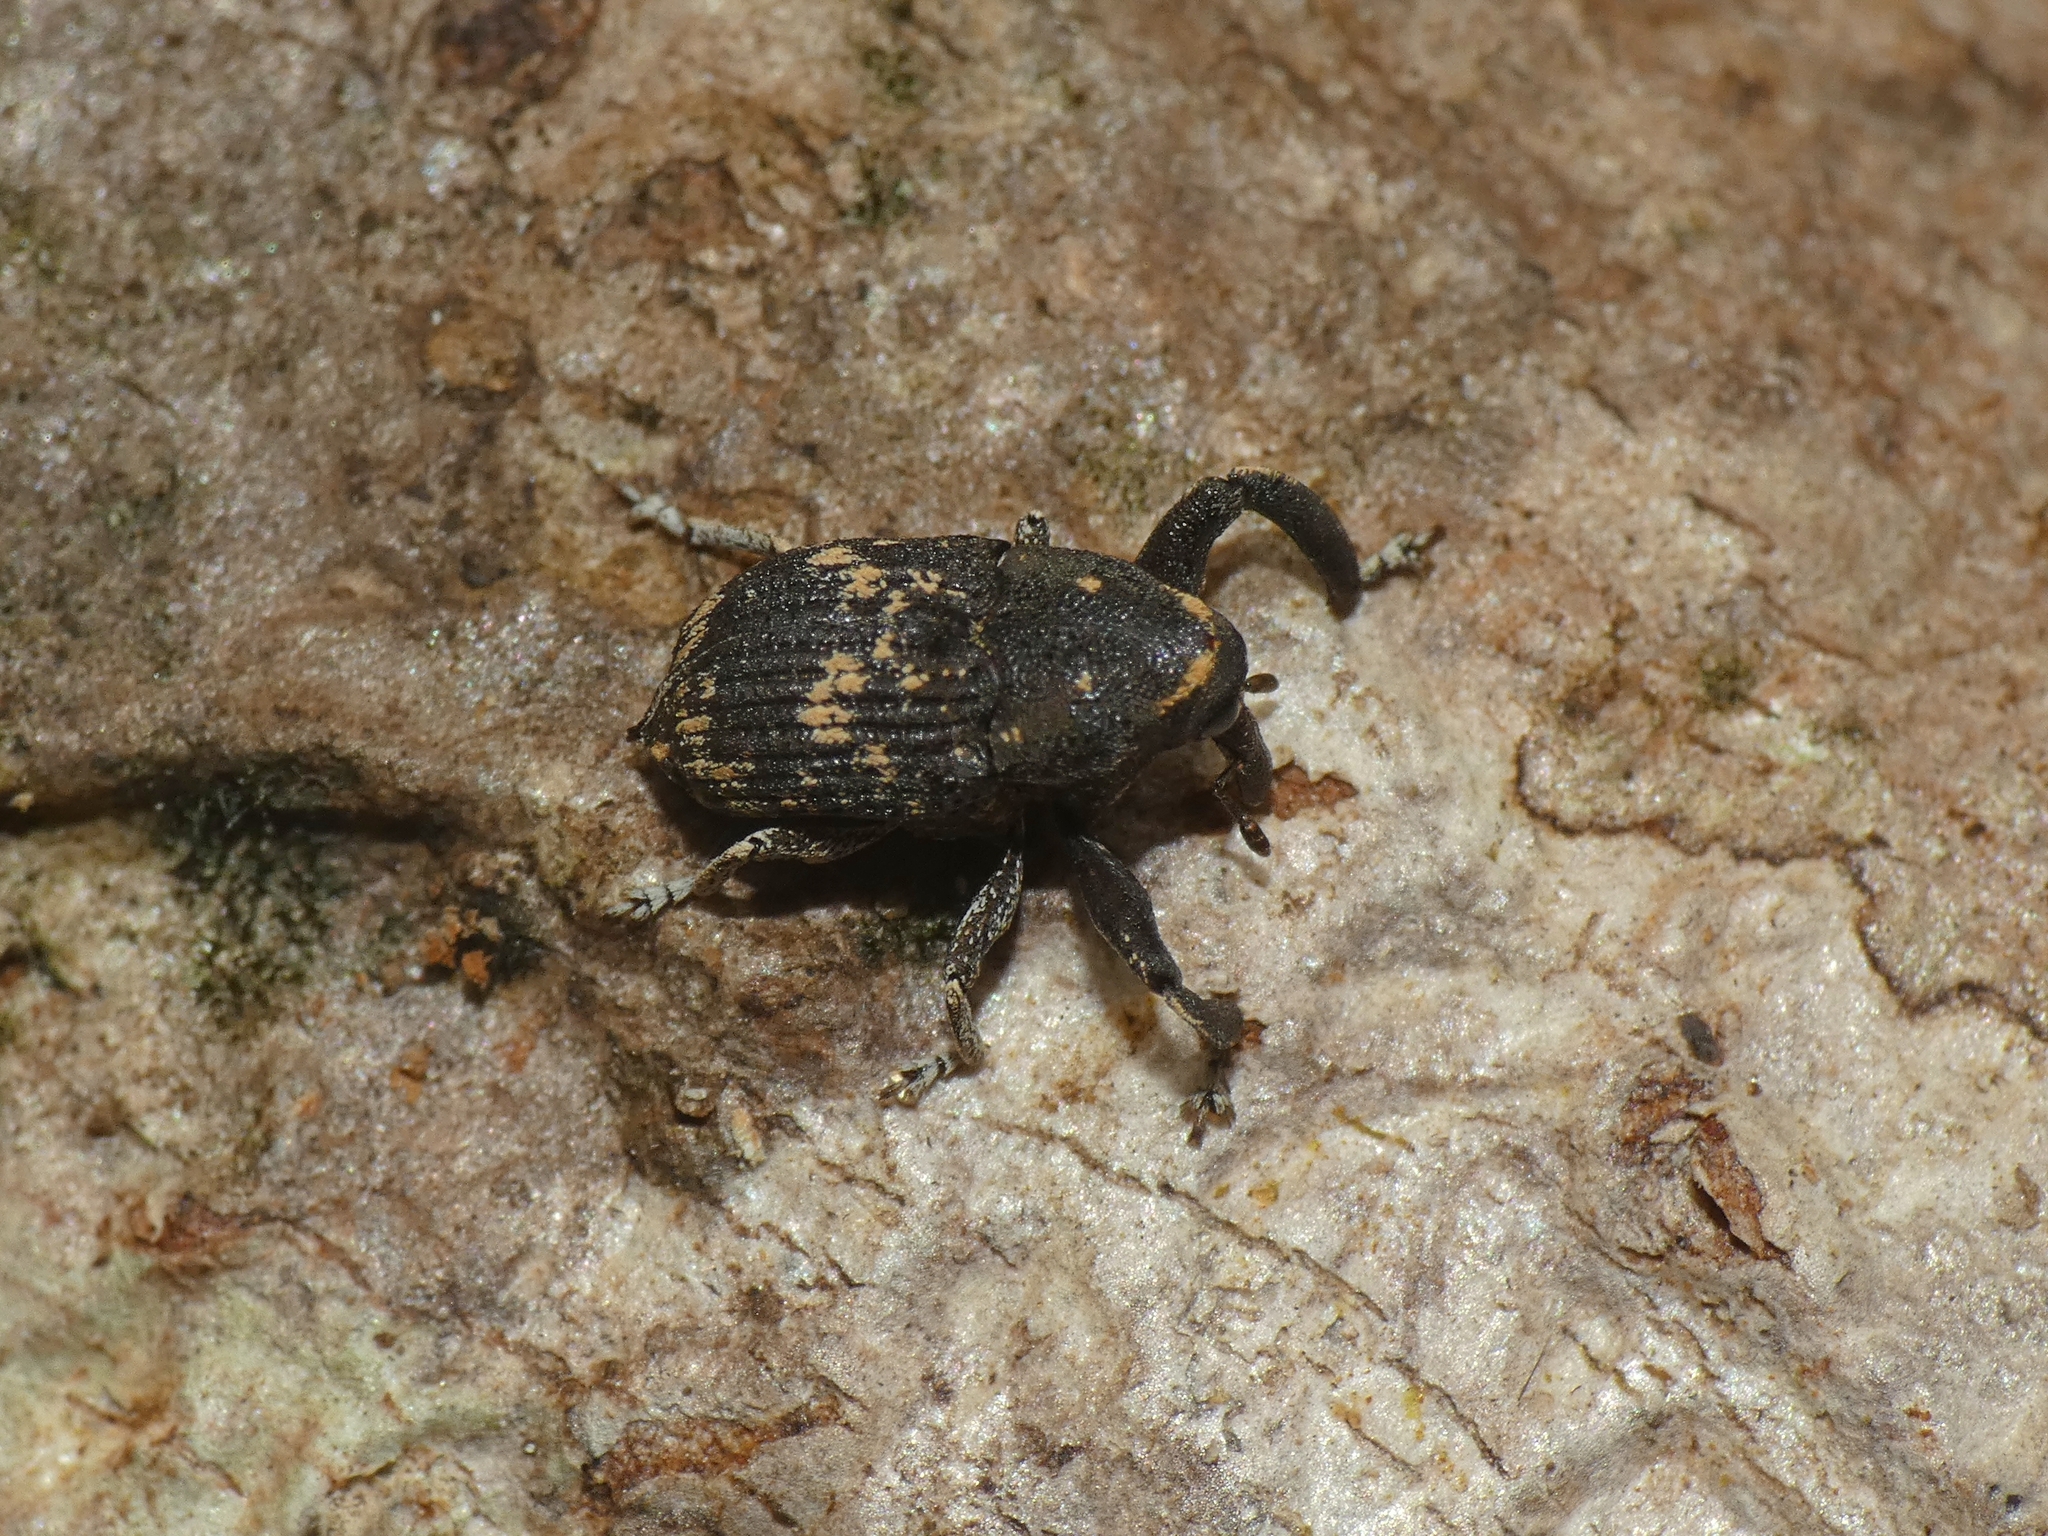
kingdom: Animalia
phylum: Arthropoda
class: Insecta
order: Coleoptera
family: Curculionidae
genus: Eutyrhinus
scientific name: Eutyrhinus meditabundus
